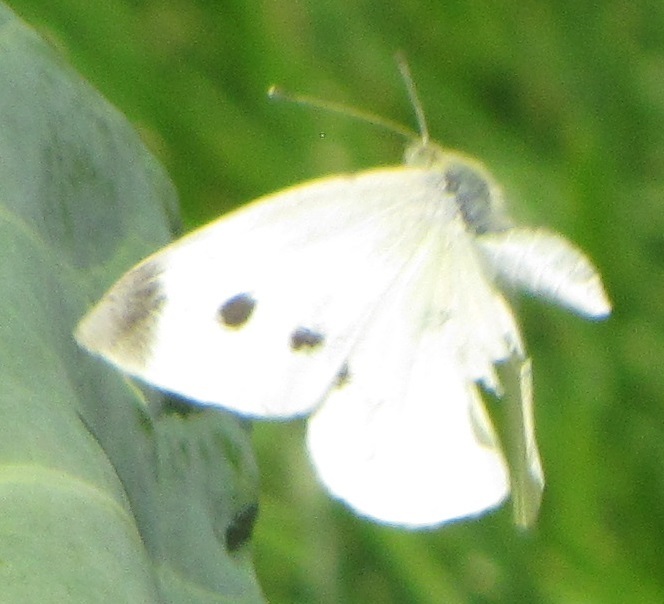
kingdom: Animalia
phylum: Arthropoda
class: Insecta
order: Lepidoptera
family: Pieridae
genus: Pieris
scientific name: Pieris rapae
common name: Small white
